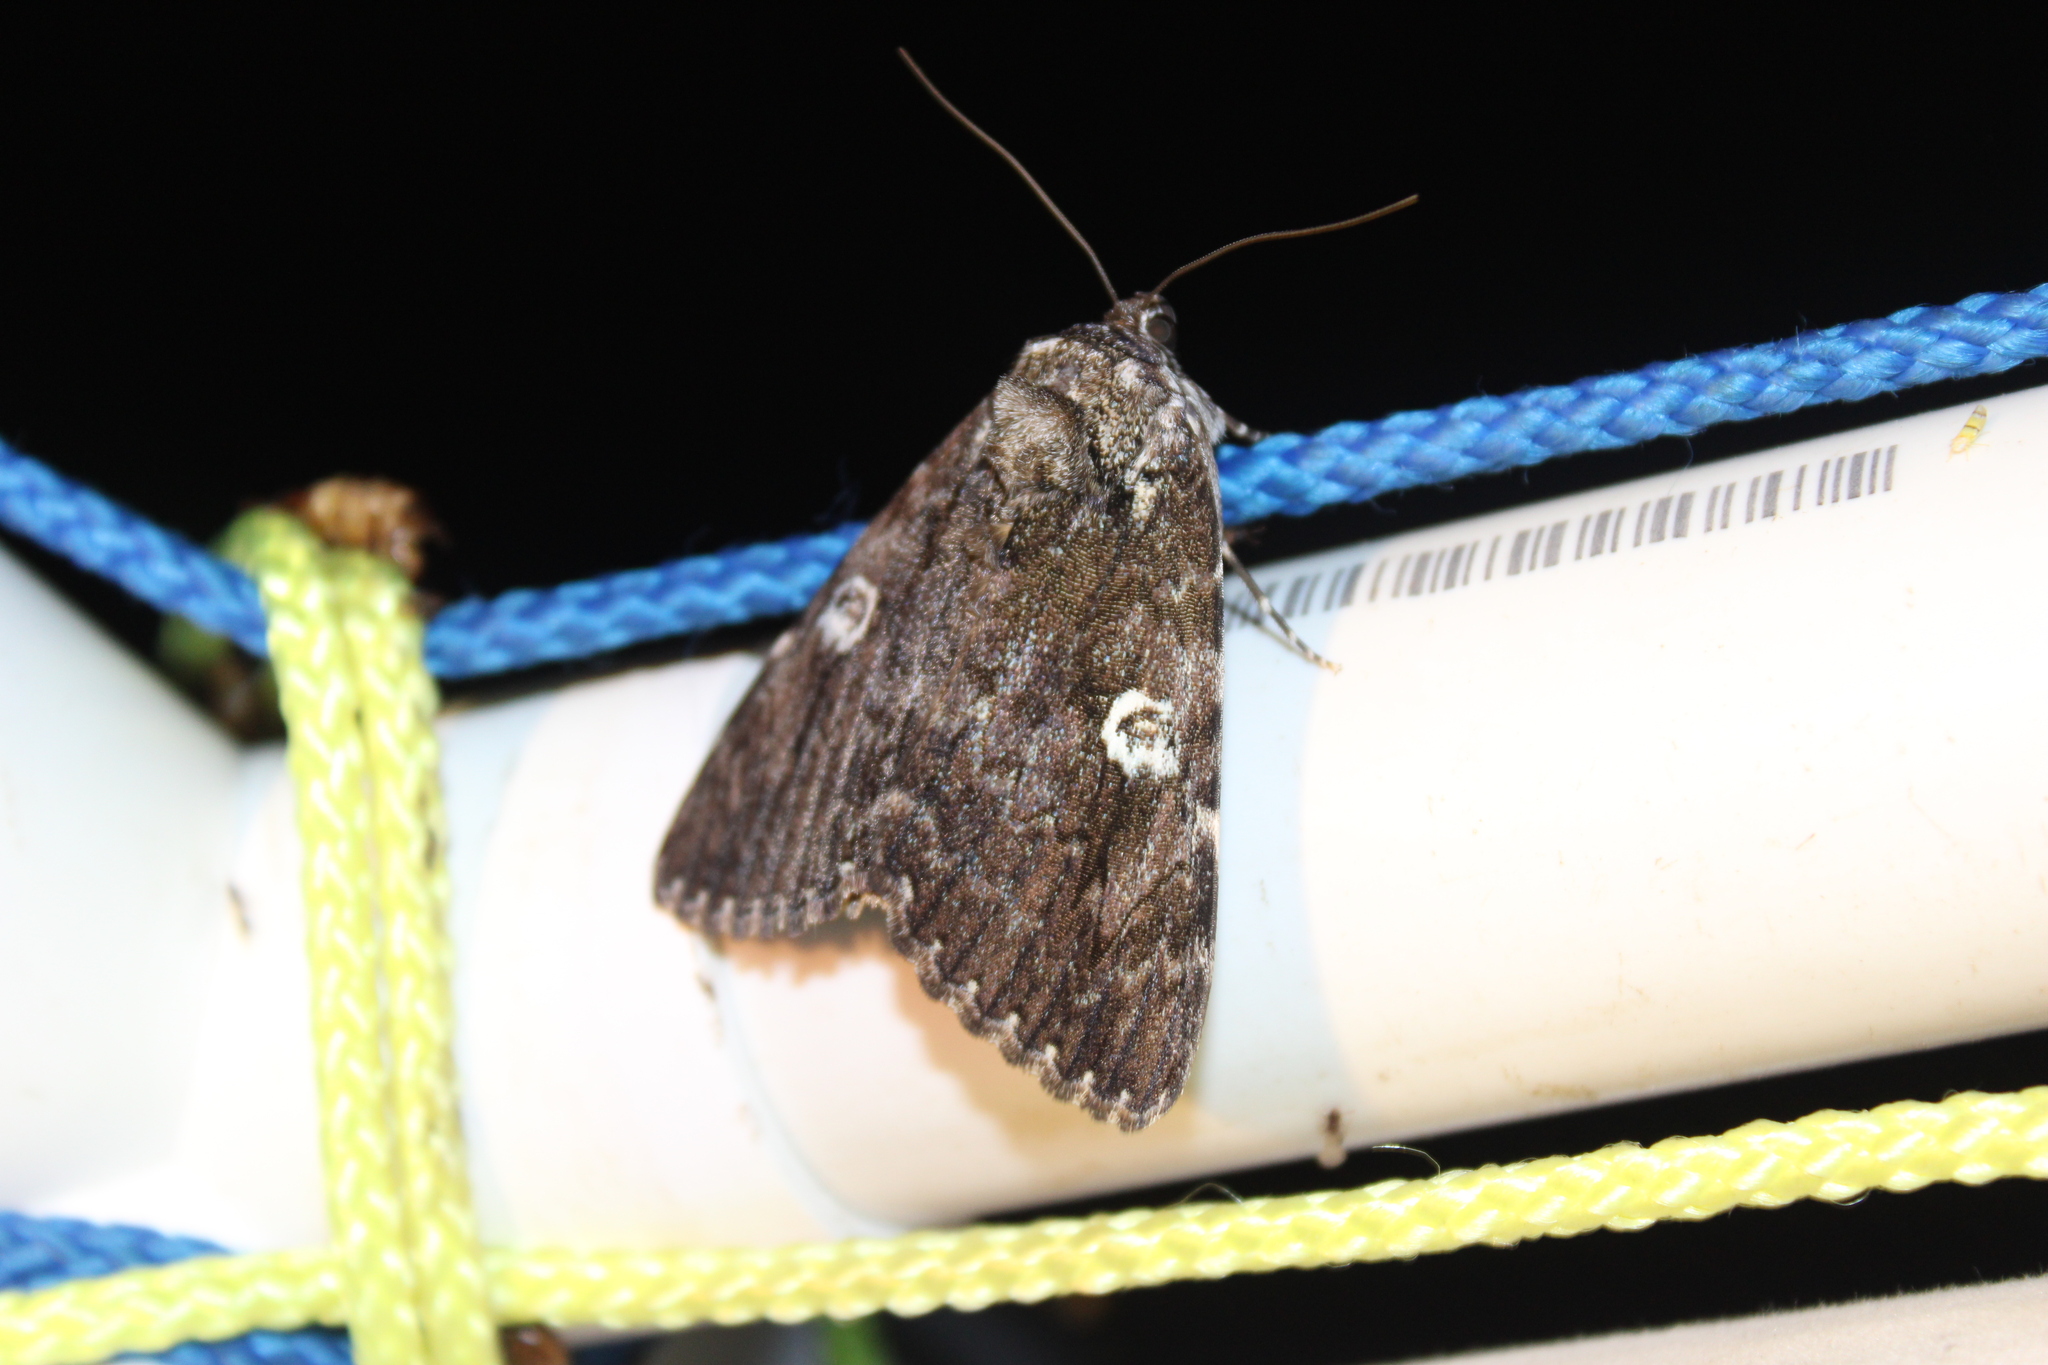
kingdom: Animalia
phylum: Arthropoda
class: Insecta
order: Lepidoptera
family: Erebidae
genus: Catocala
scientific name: Catocala ilia
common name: Ilia underwing
